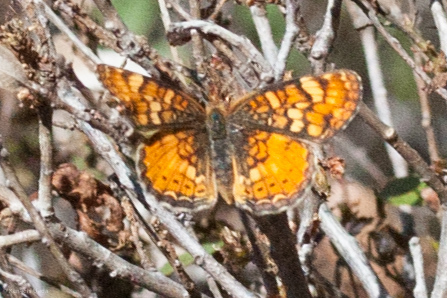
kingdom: Animalia
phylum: Arthropoda
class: Insecta
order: Lepidoptera
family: Nymphalidae
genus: Phyciodes
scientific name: Phyciodes tharos
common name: Pearl crescent
